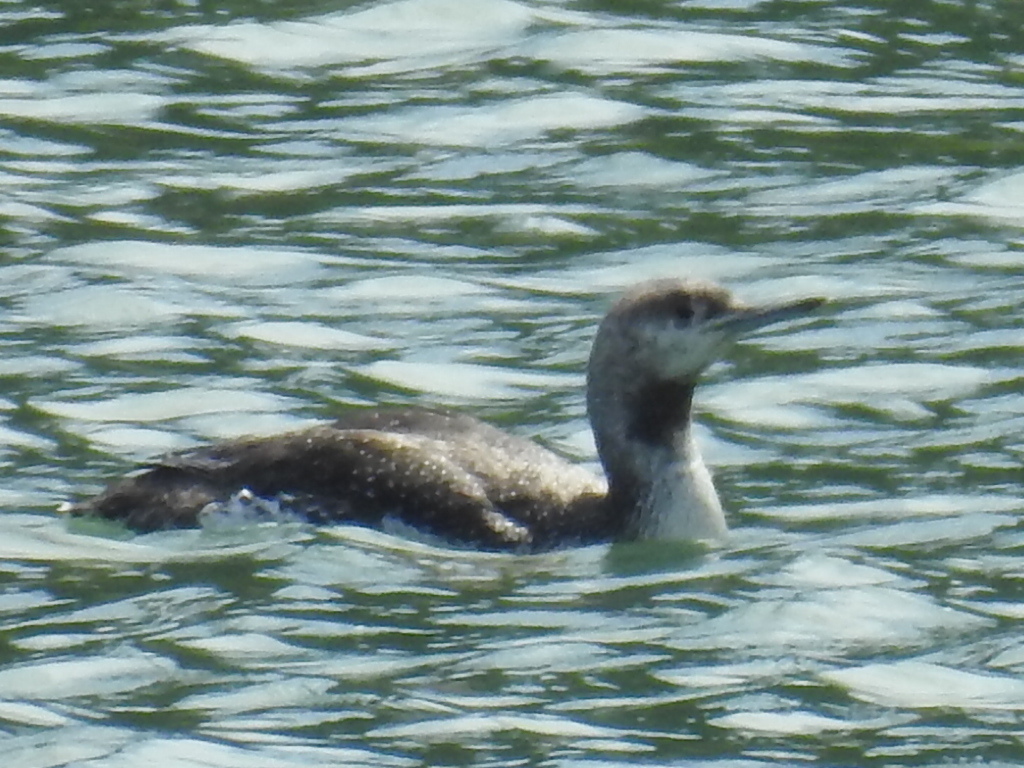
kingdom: Animalia
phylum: Chordata
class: Aves
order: Gaviiformes
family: Gaviidae
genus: Gavia
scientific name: Gavia stellata
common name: Red-throated loon
